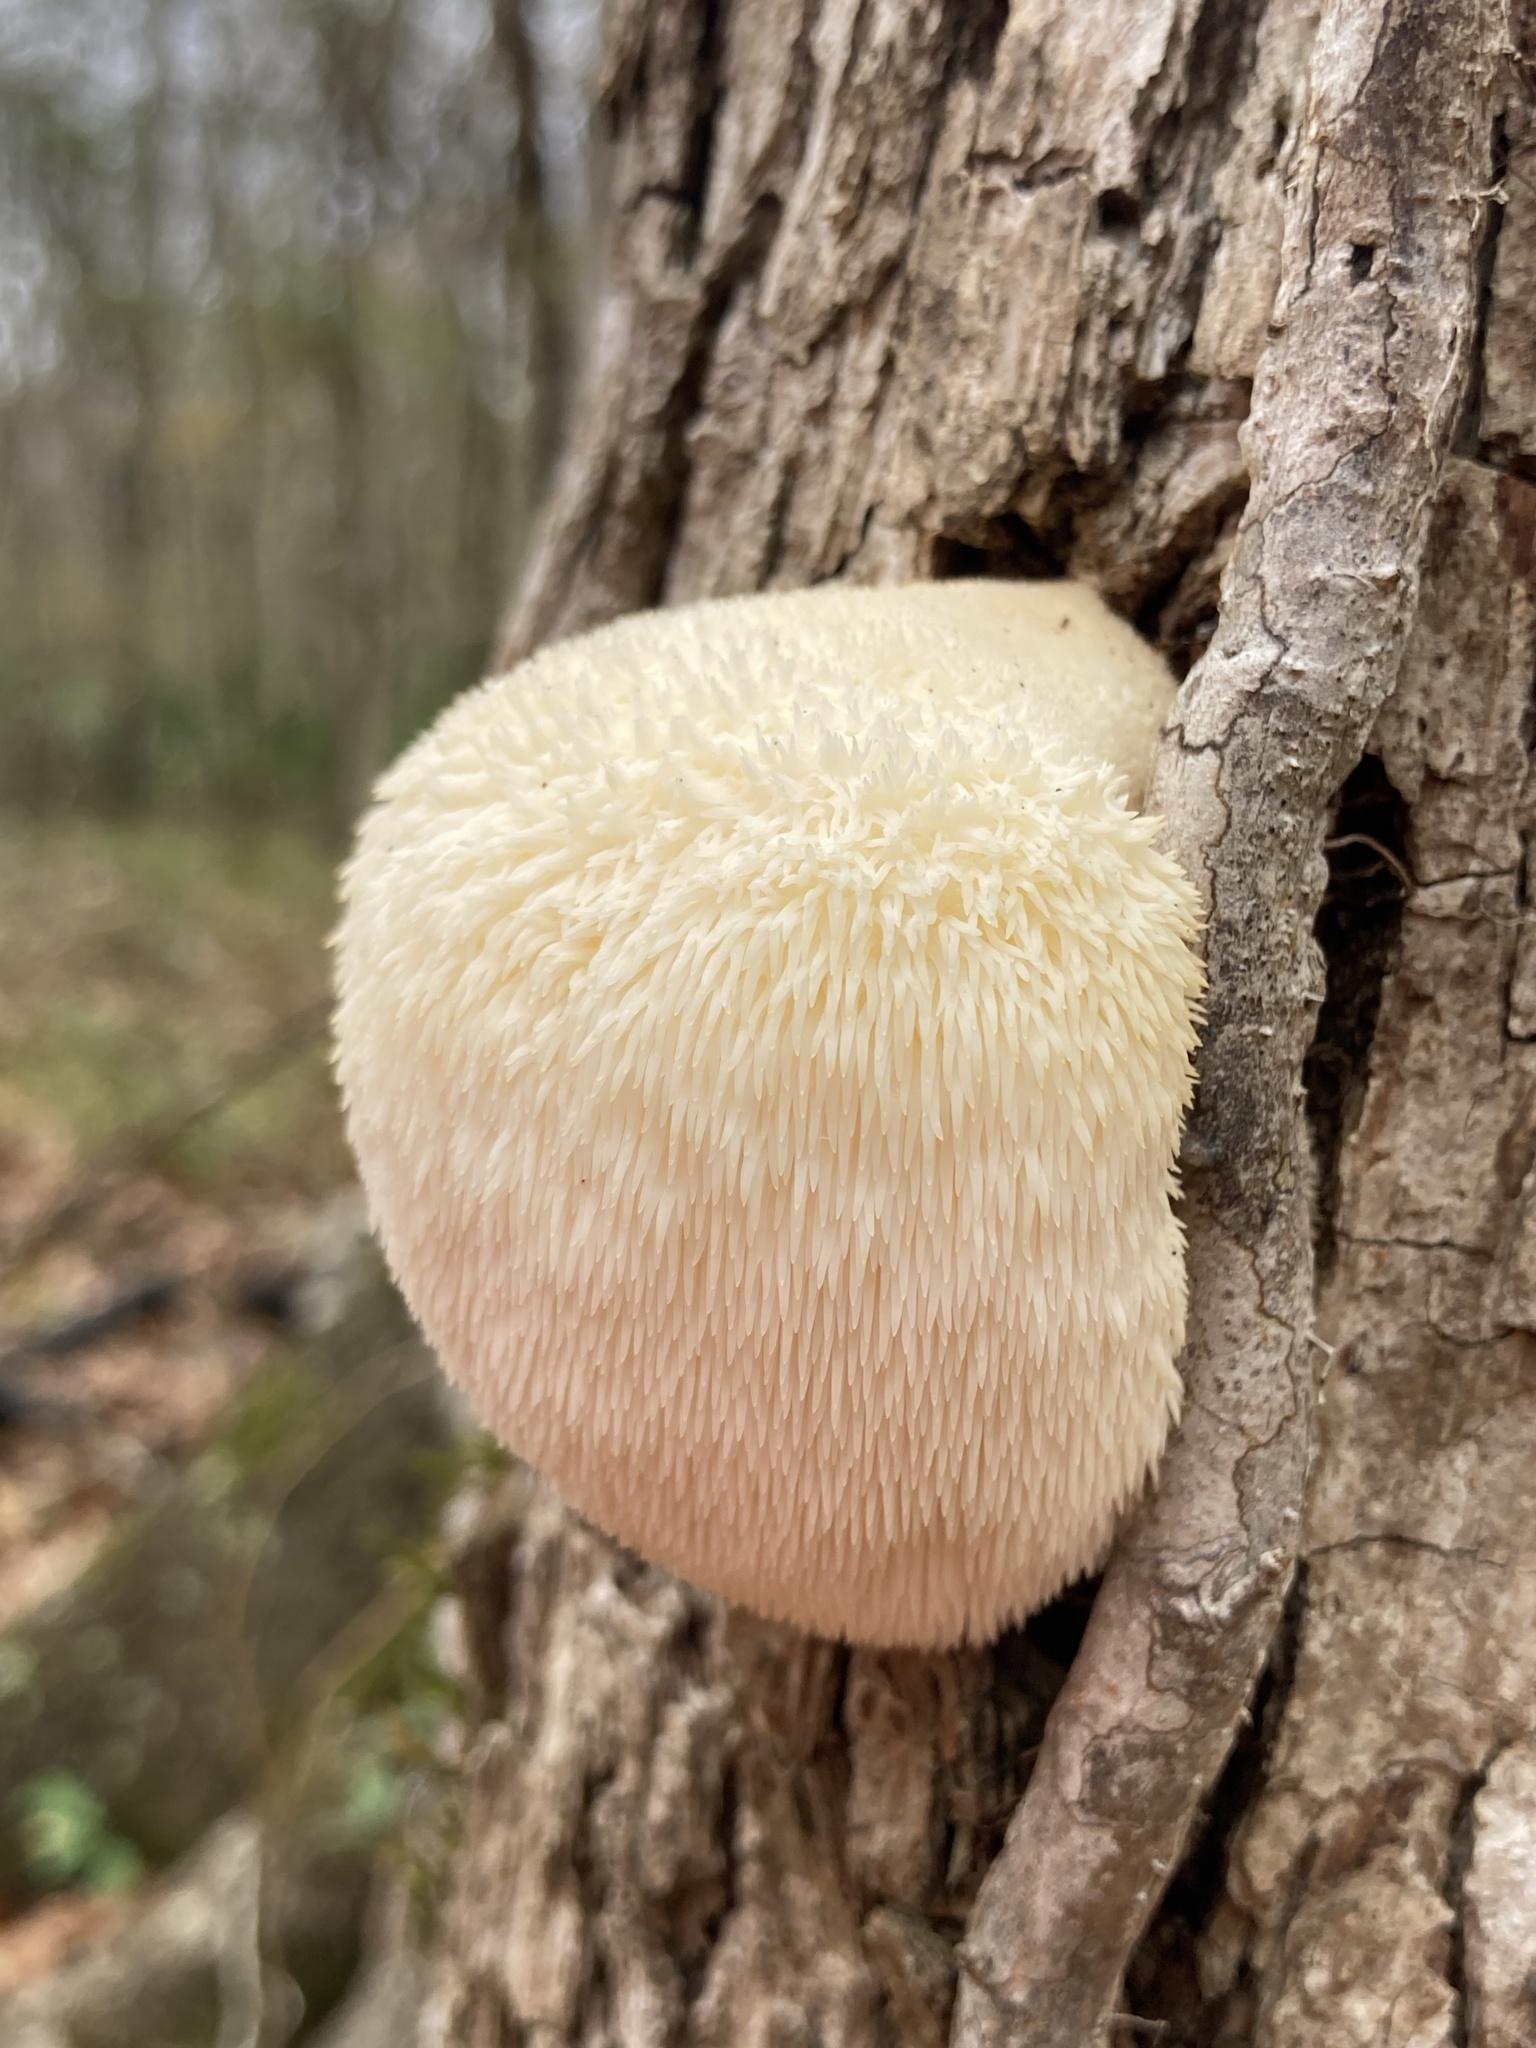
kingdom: Fungi
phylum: Basidiomycota
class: Agaricomycetes
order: Russulales
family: Hericiaceae
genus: Hericium
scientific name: Hericium erinaceus
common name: Bearded tooth
